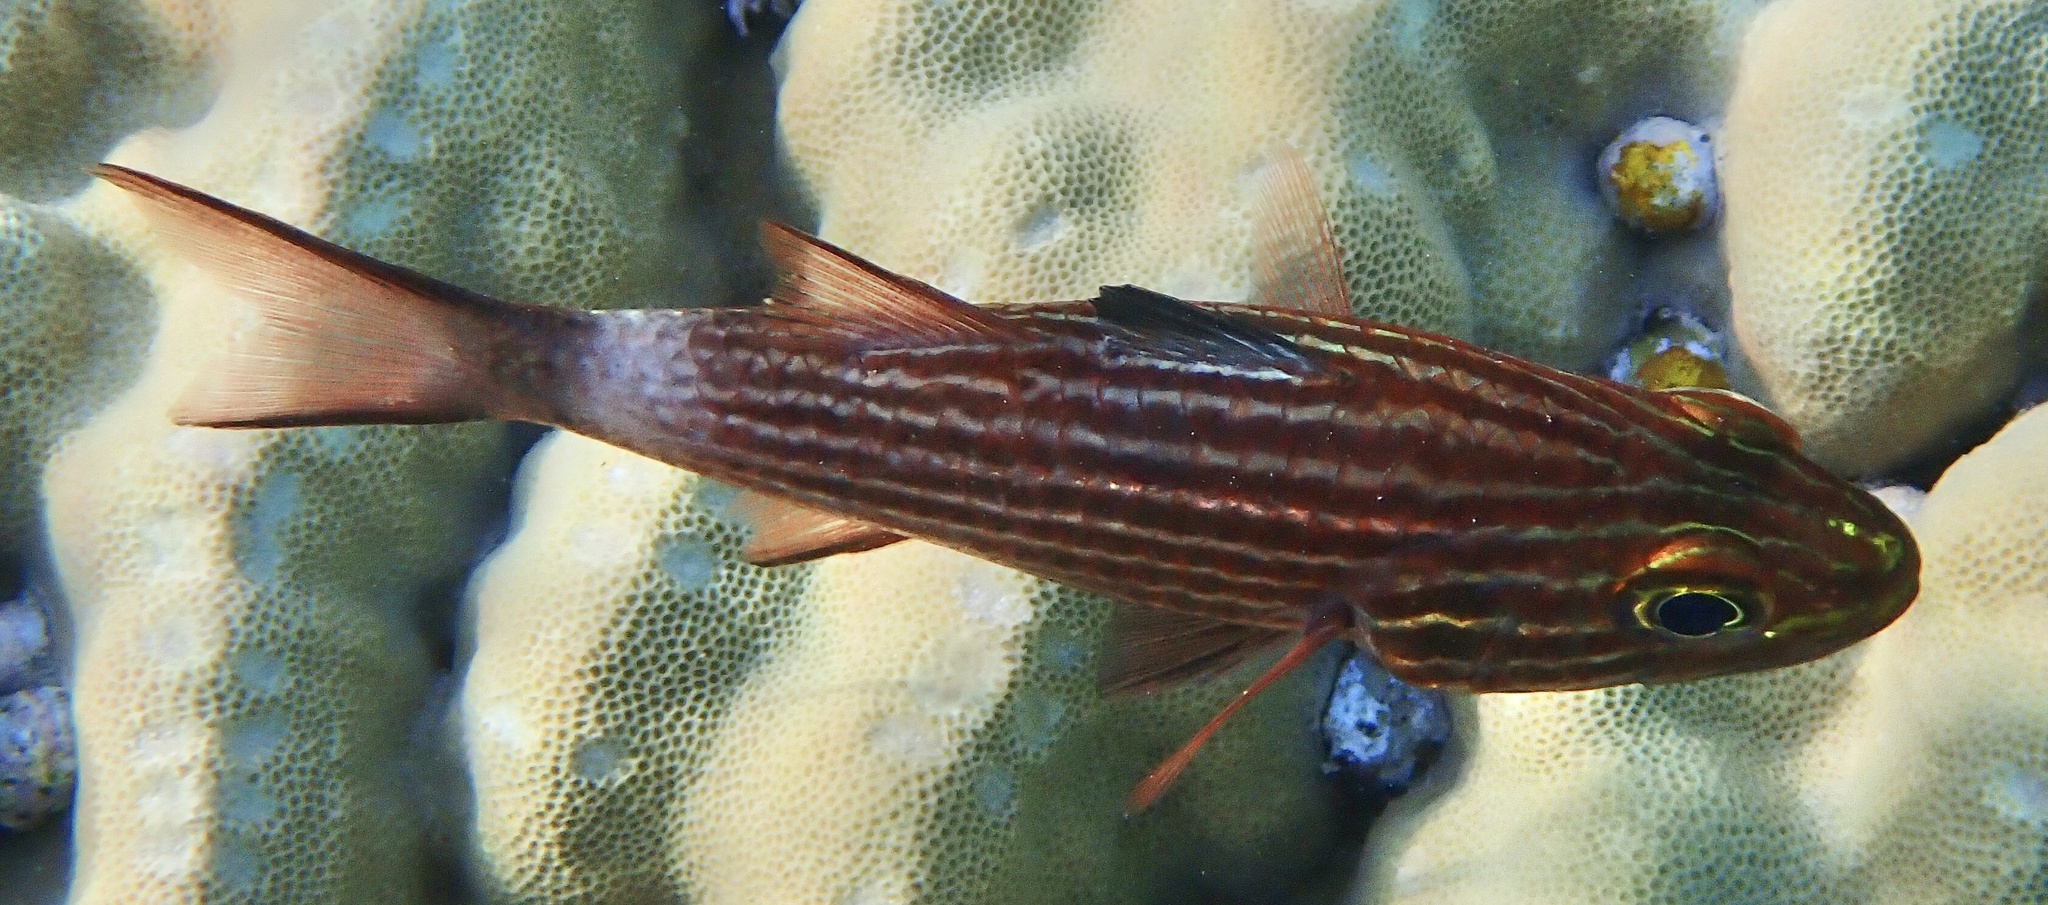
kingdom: Animalia
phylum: Chordata
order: Perciformes
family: Apogonidae
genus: Cheilodipterus
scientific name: Cheilodipterus macrodon
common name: Eight-lined cardinalfish
